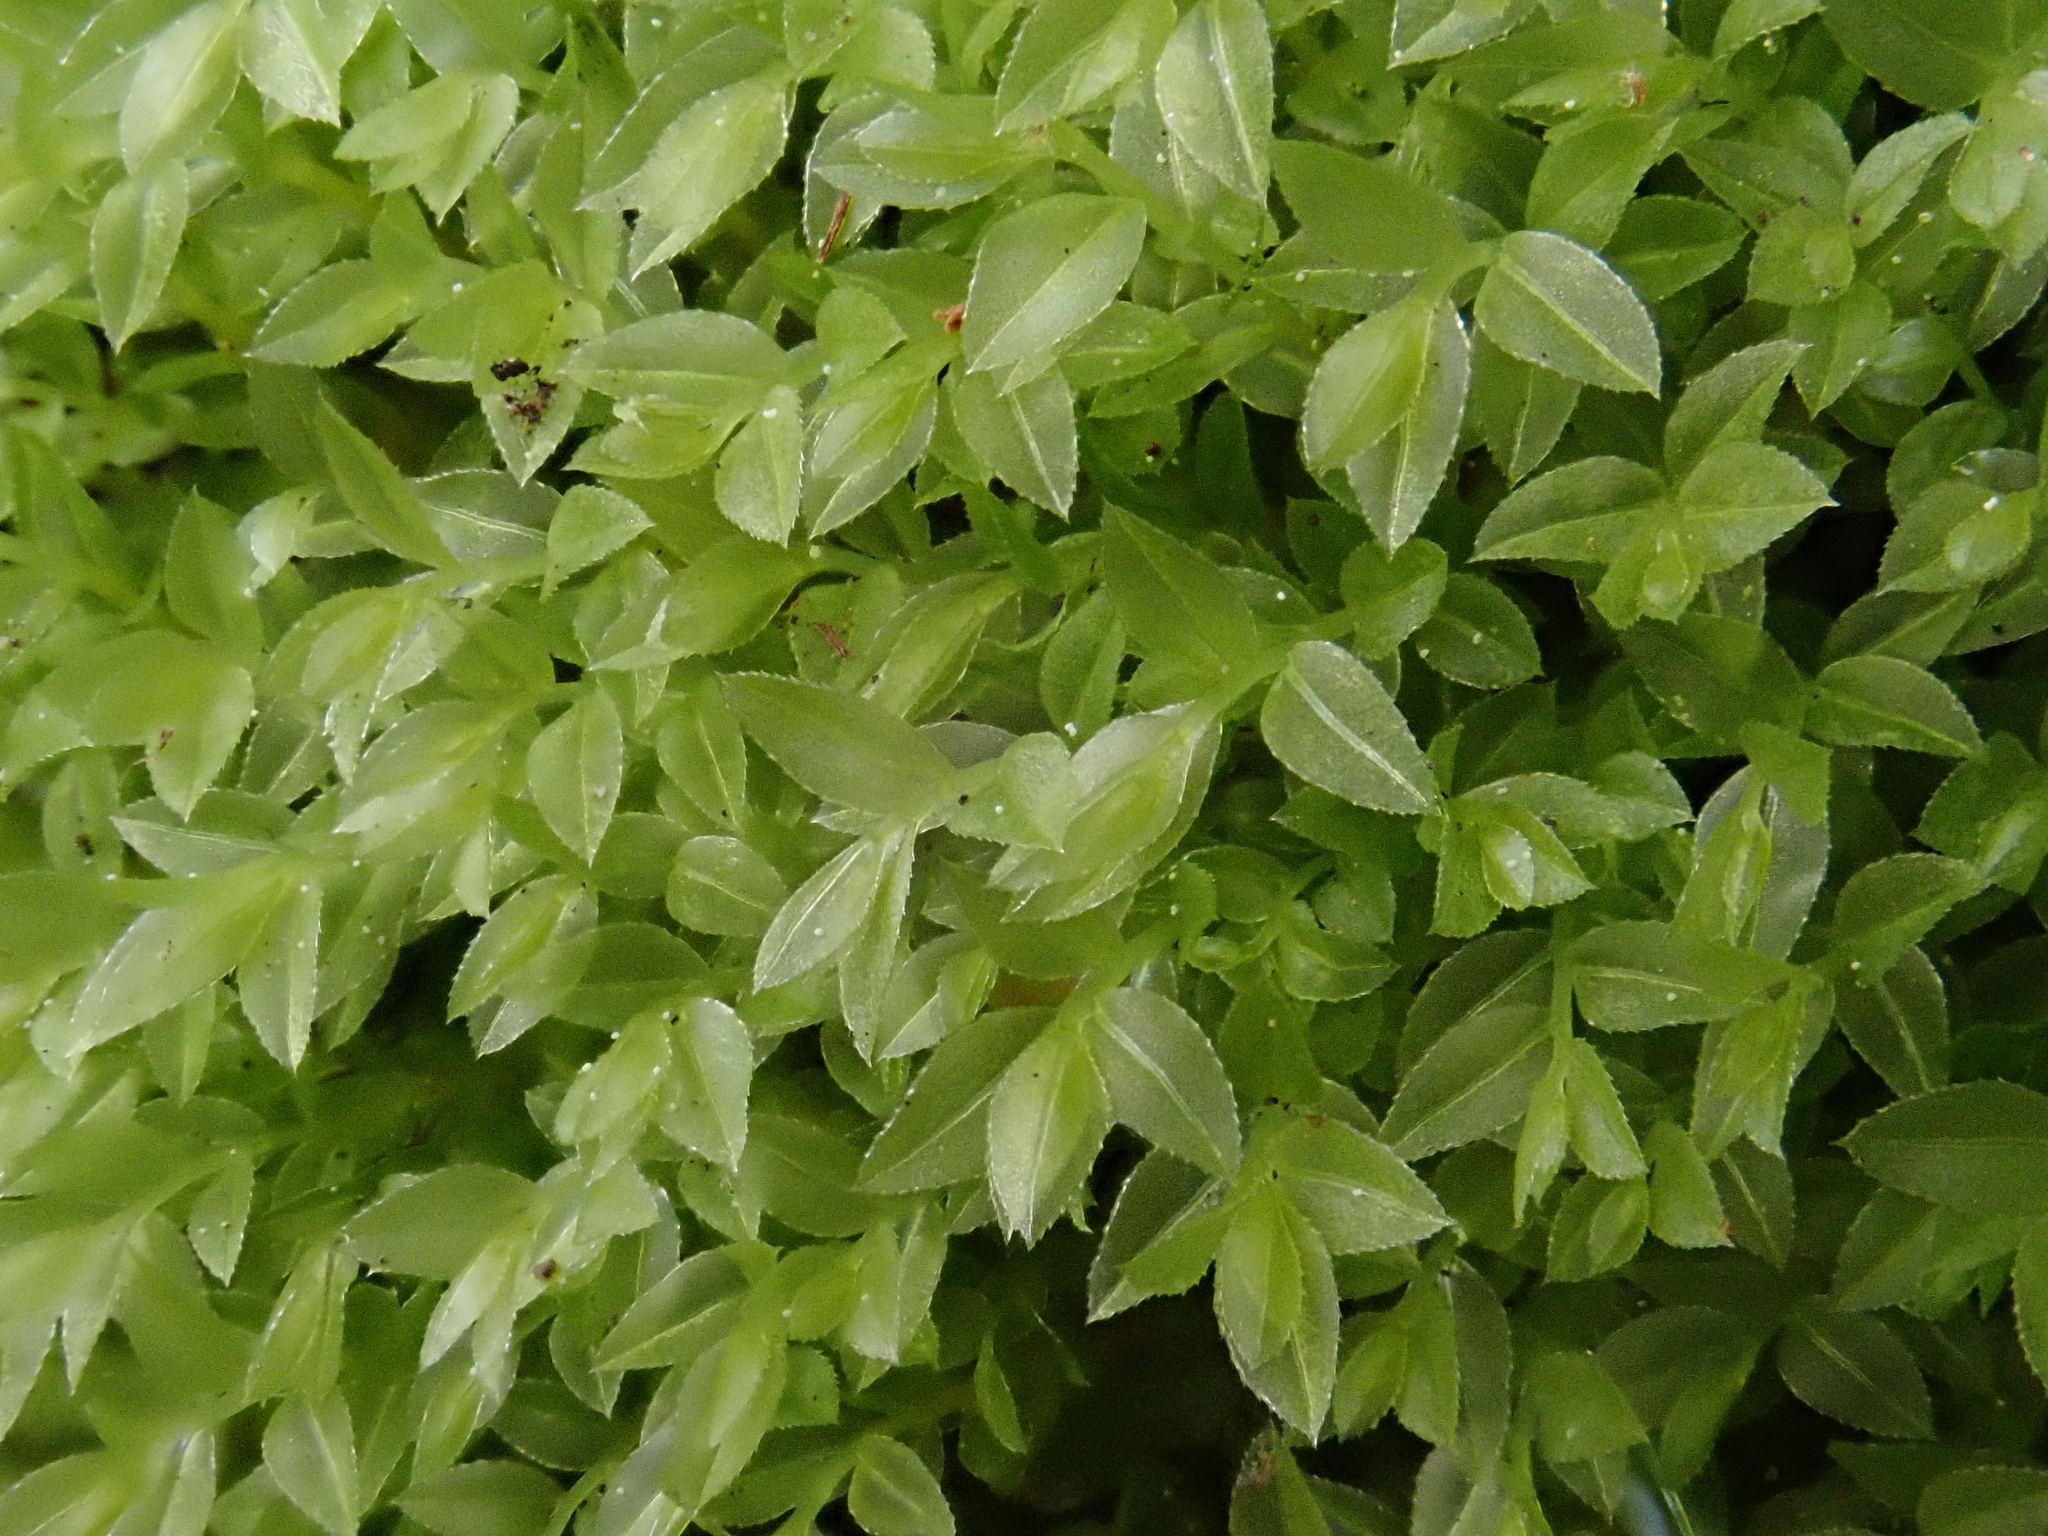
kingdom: Plantae
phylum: Bryophyta
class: Bryopsida
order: Bryales
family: Mniaceae
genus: Mnium
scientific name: Mnium marginatum
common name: Bordered leafy moss
